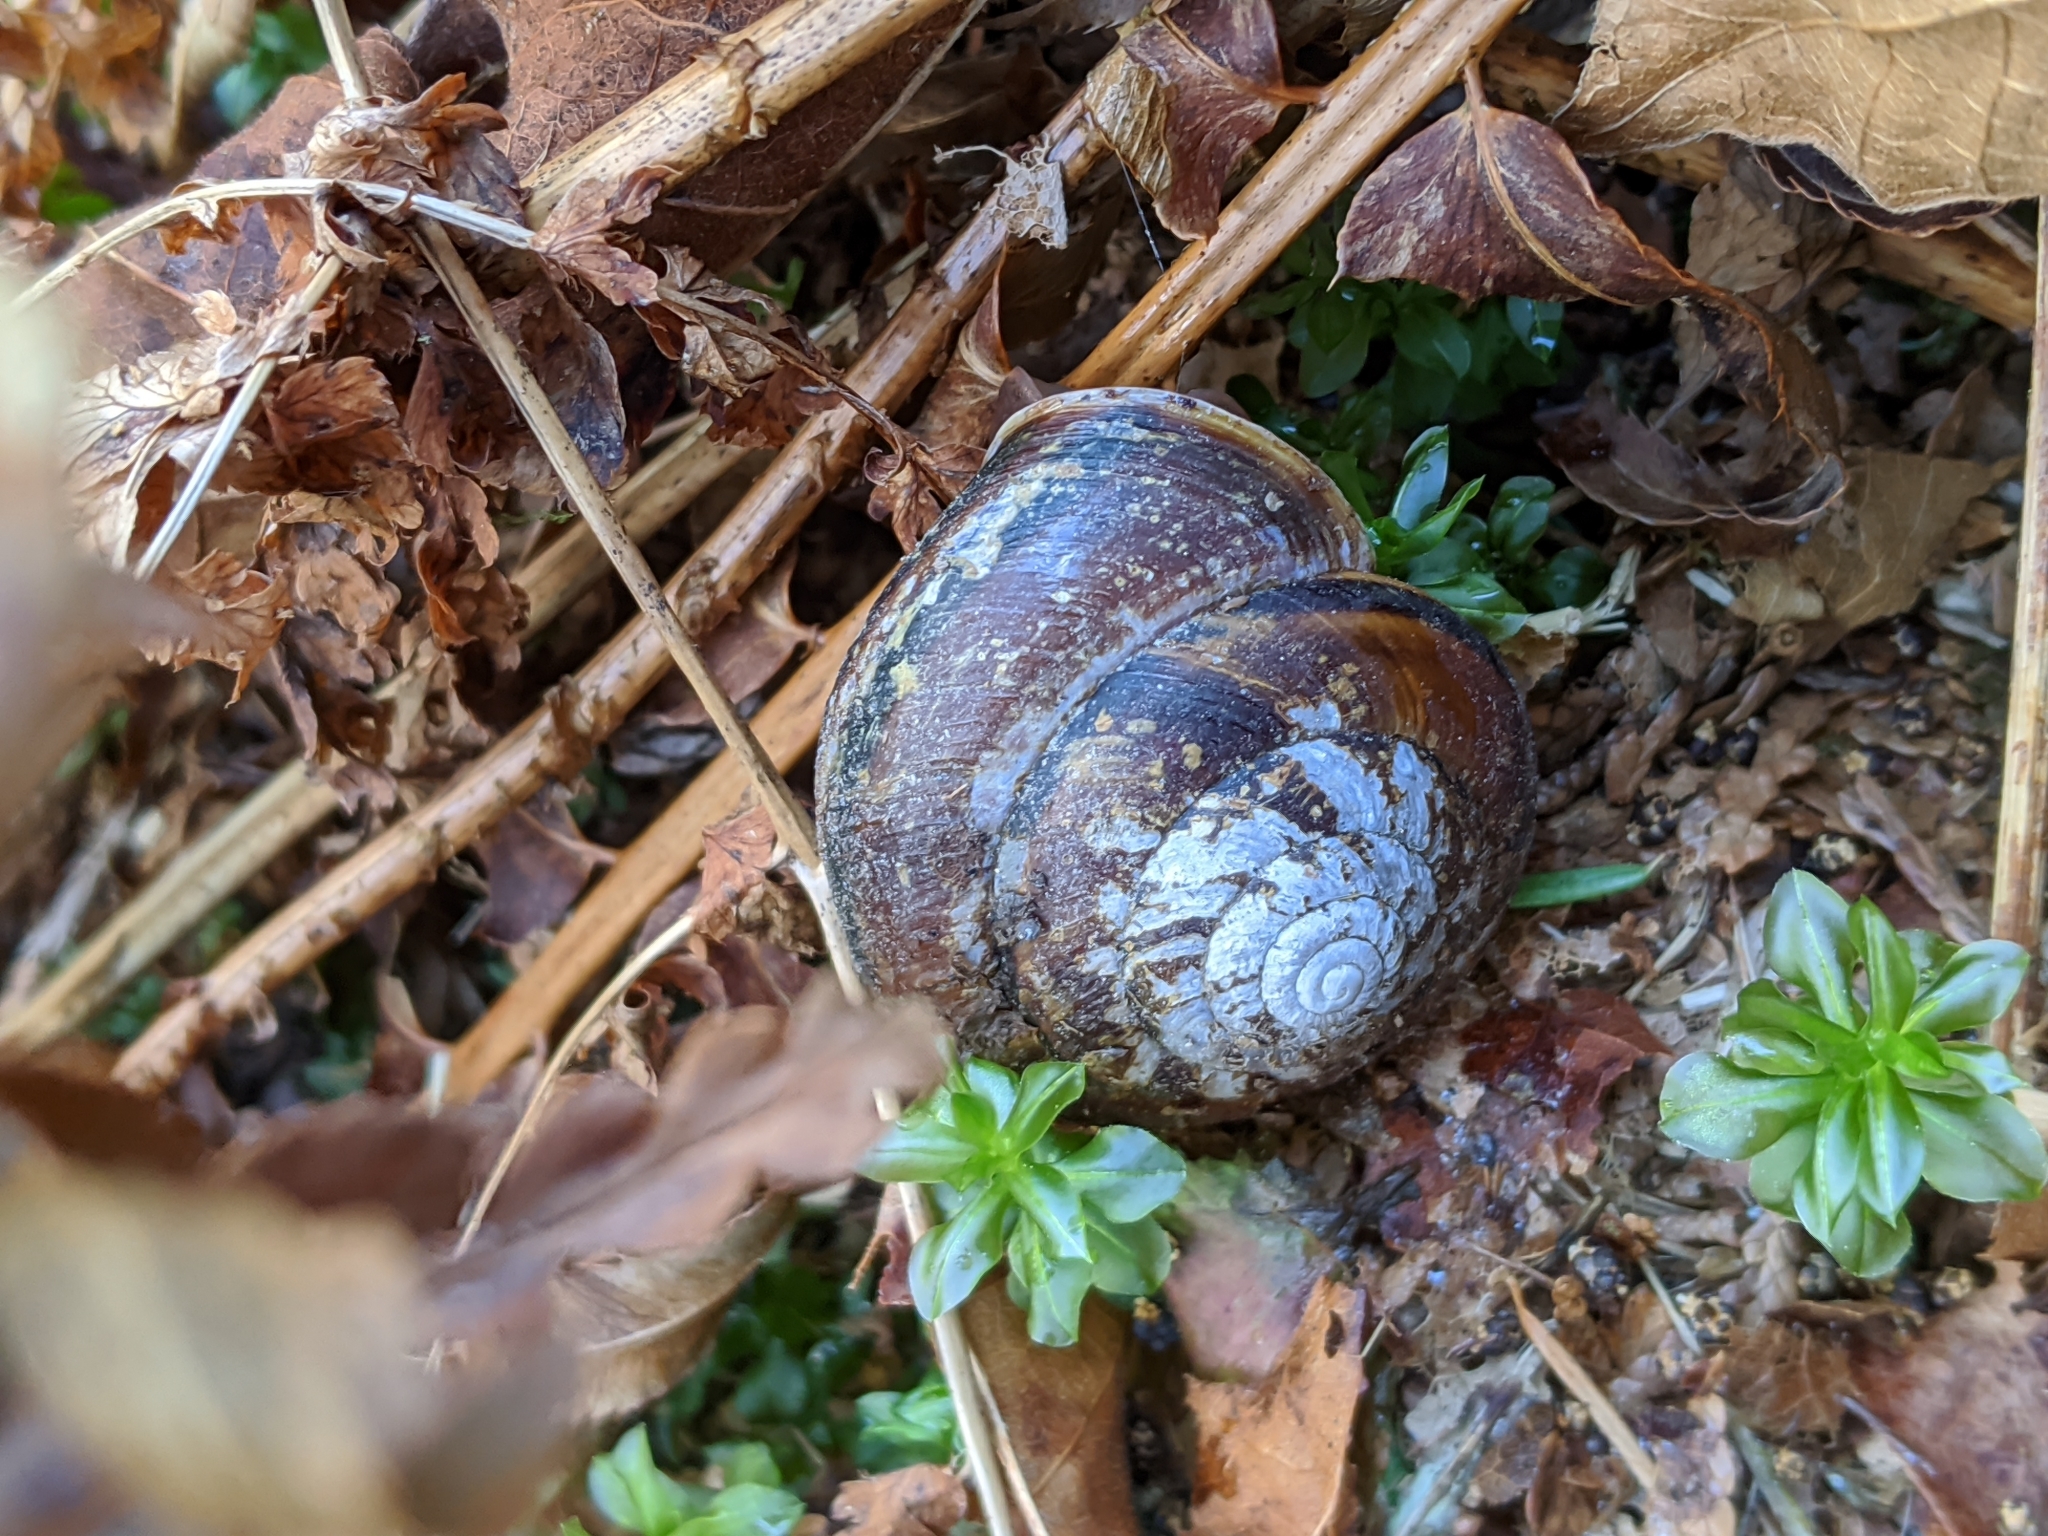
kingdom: Animalia
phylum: Mollusca
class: Gastropoda
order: Stylommatophora
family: Xanthonychidae
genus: Monadenia
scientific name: Monadenia fidelis
